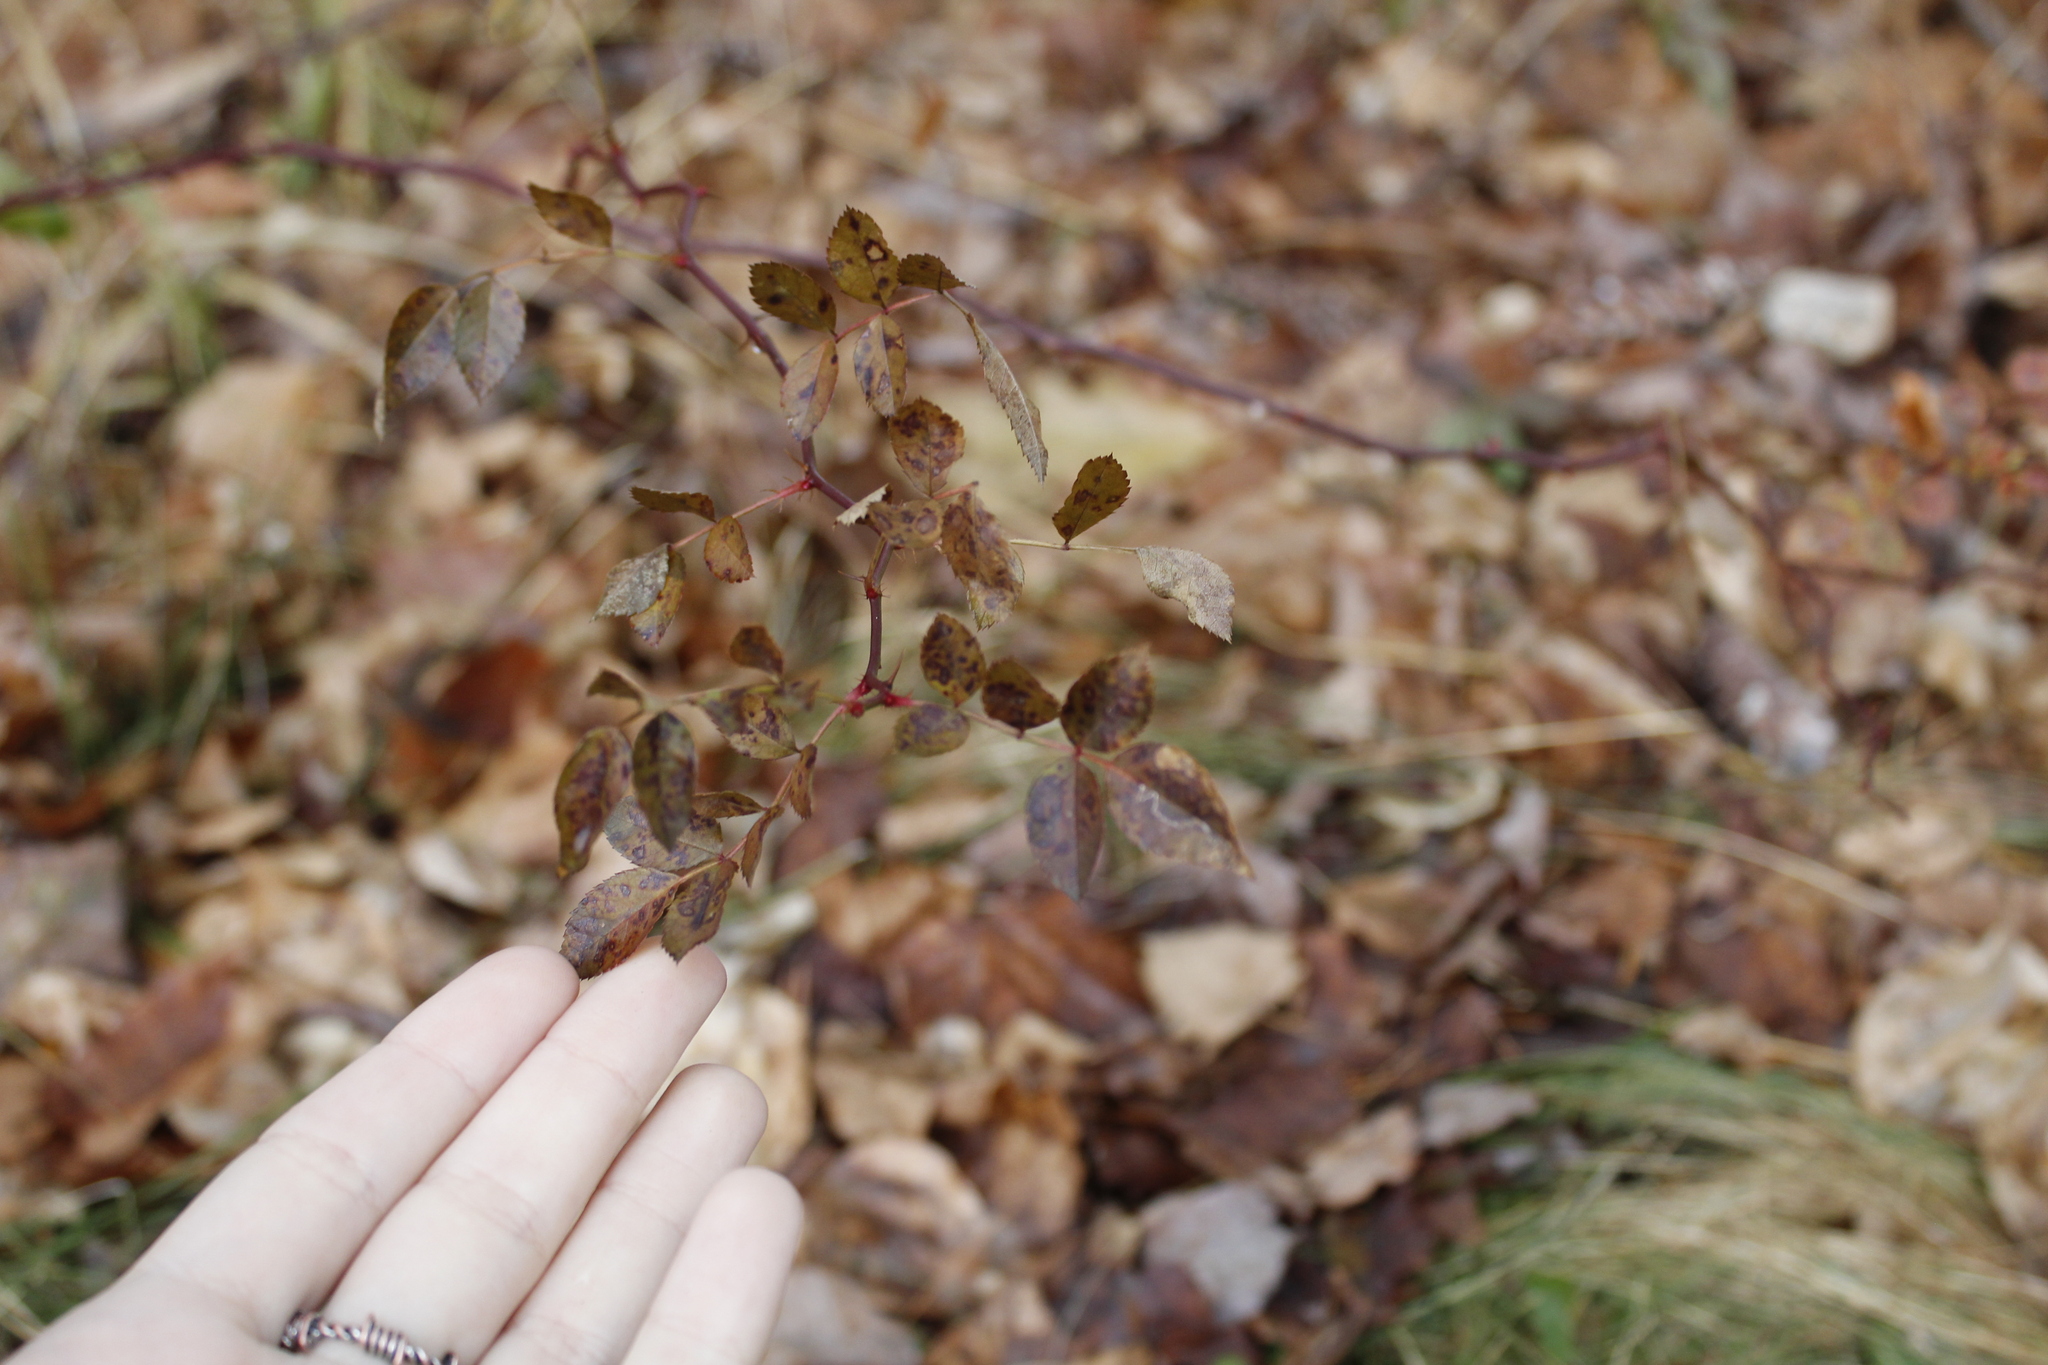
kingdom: Plantae
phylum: Tracheophyta
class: Magnoliopsida
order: Rosales
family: Rosaceae
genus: Rosa
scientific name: Rosa multiflora
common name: Multiflora rose
